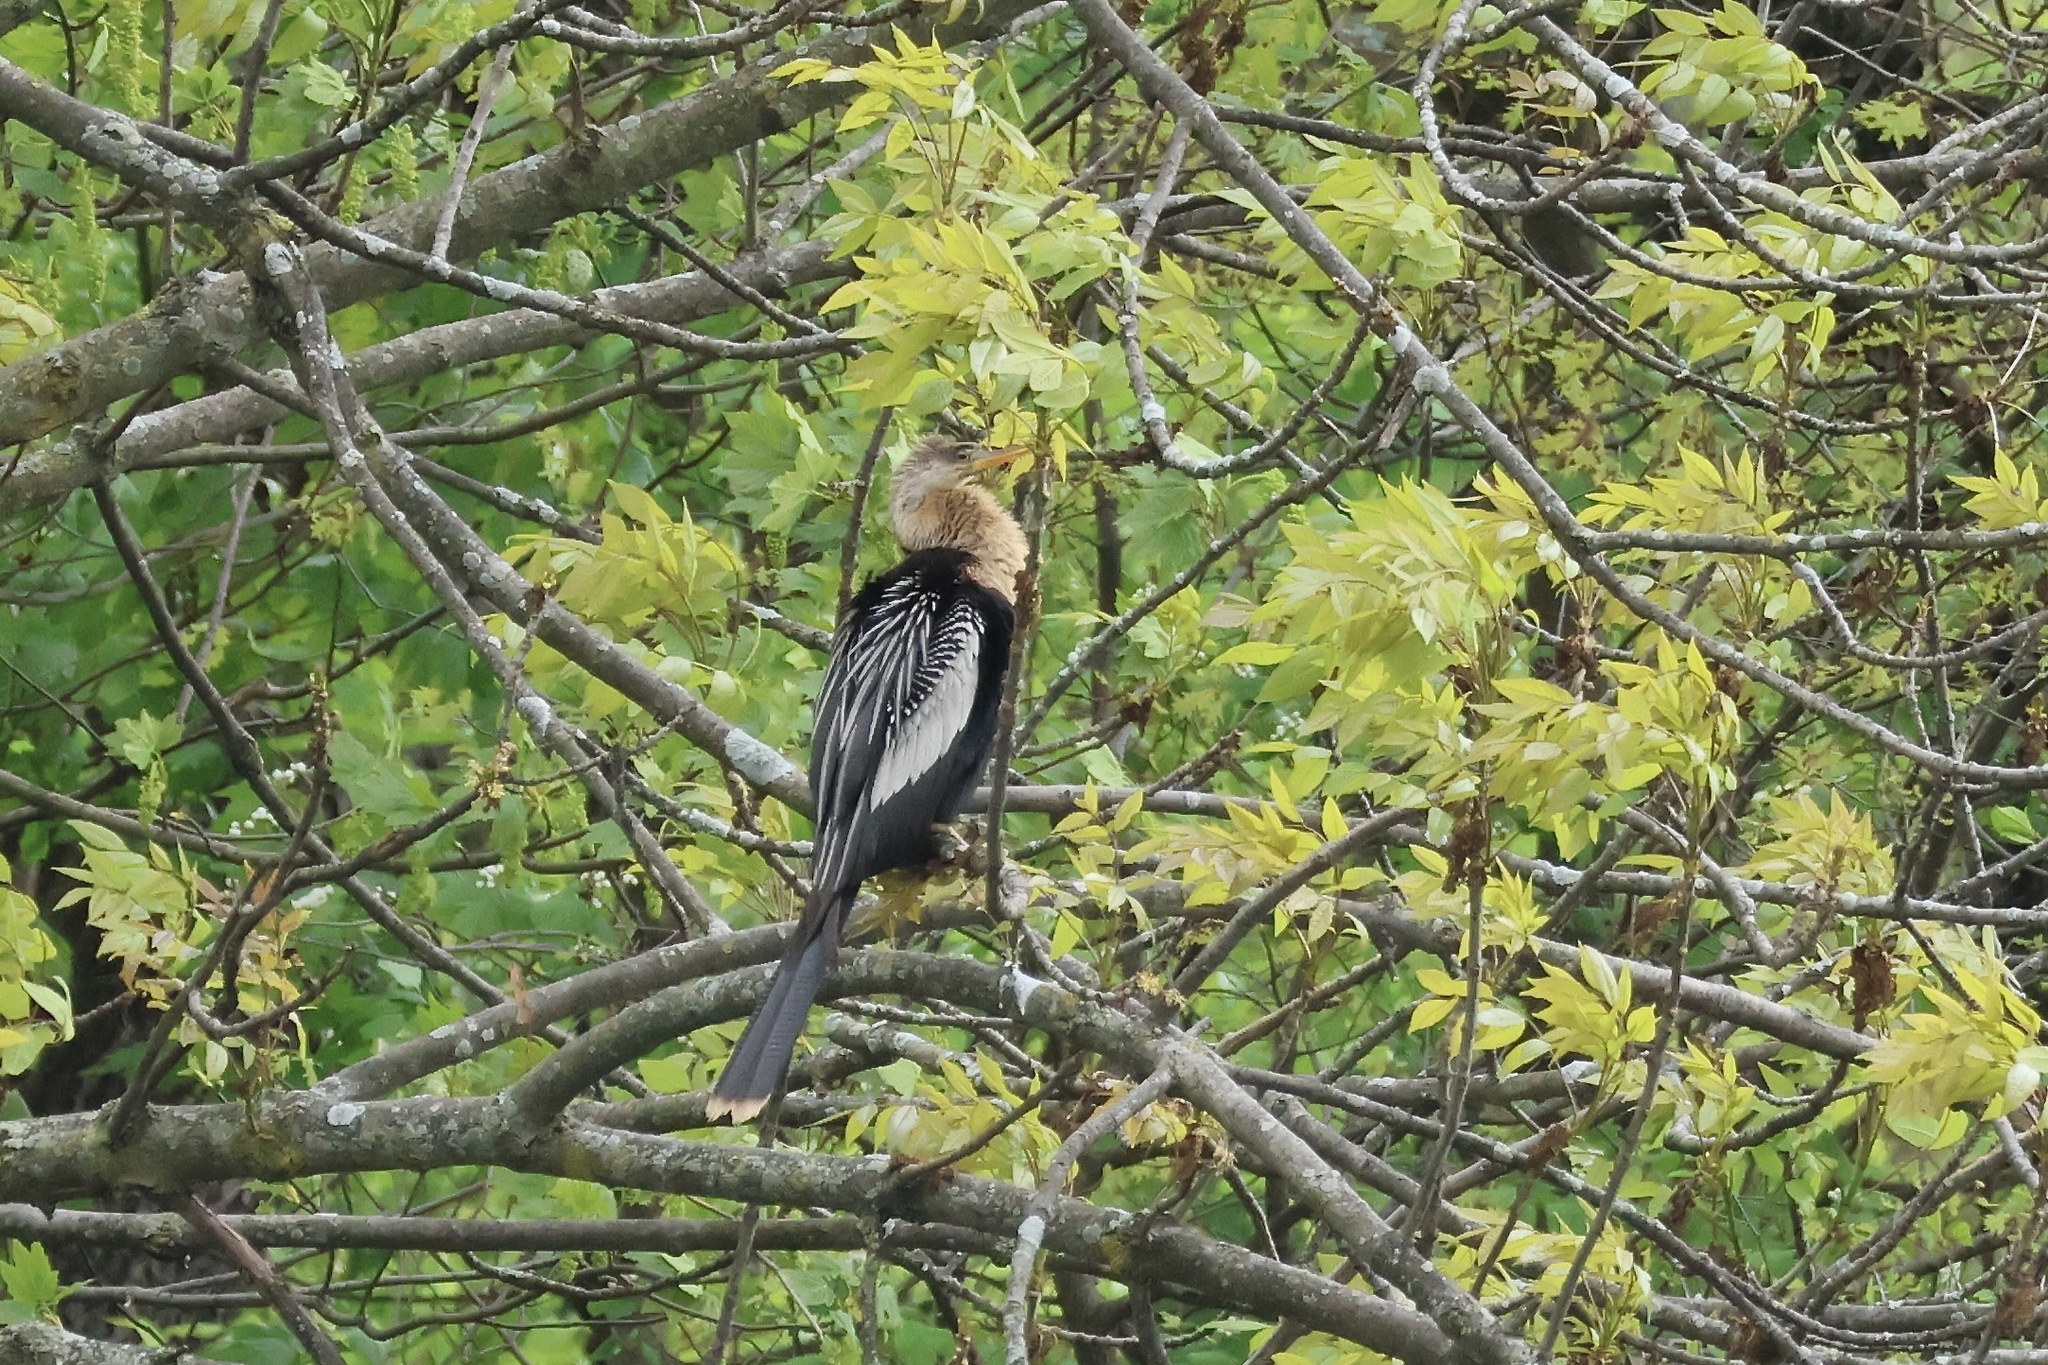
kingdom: Animalia
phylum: Chordata
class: Aves
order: Suliformes
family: Anhingidae
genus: Anhinga
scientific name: Anhinga anhinga
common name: Anhinga
